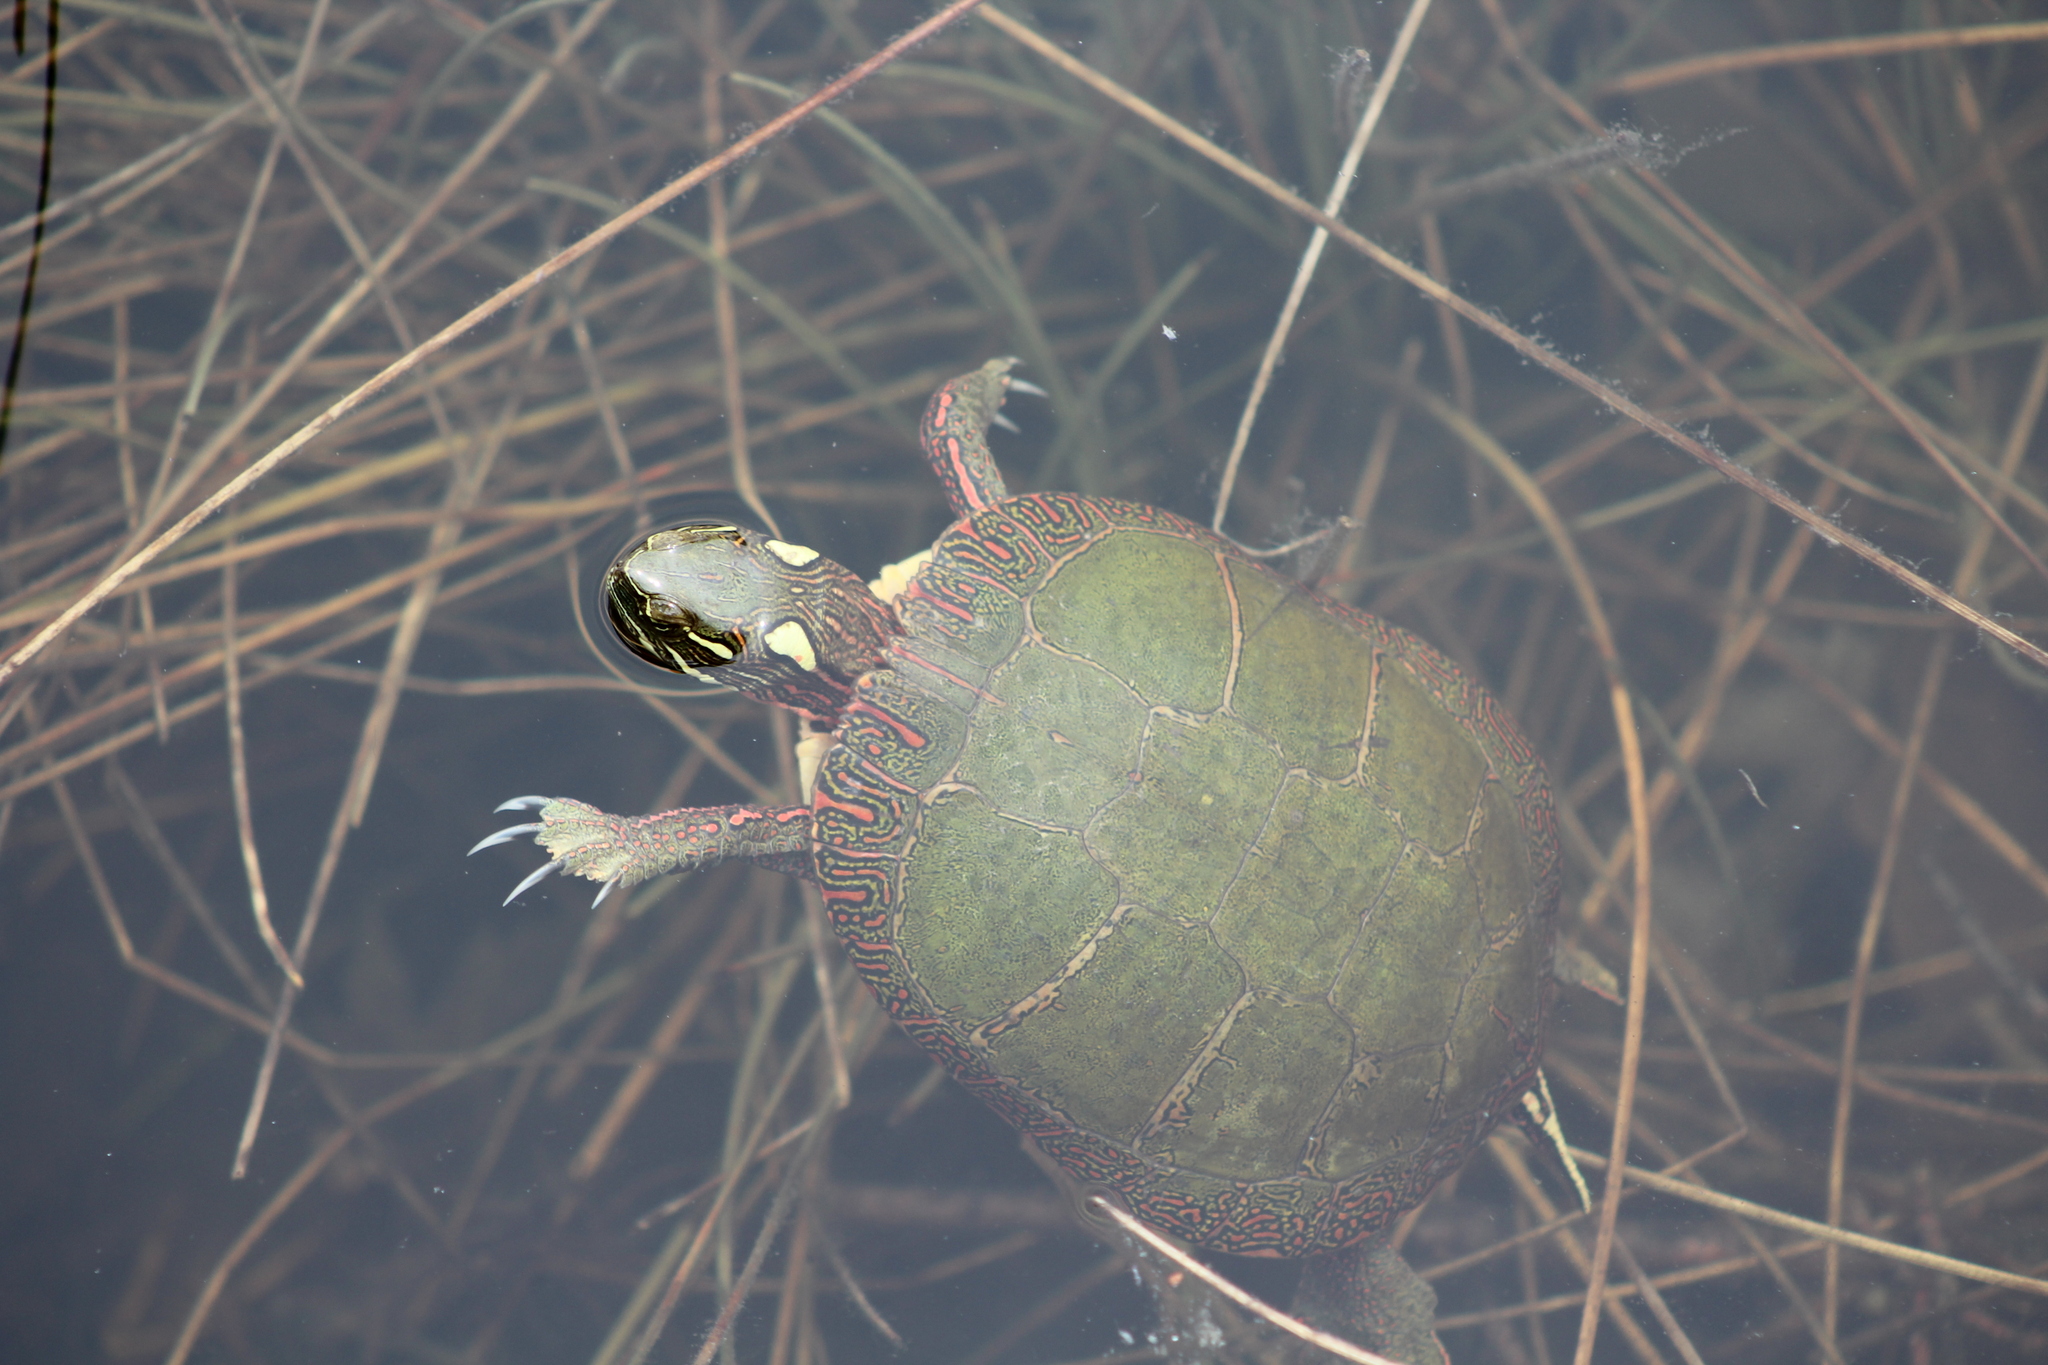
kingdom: Animalia
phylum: Chordata
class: Testudines
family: Emydidae
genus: Chrysemys
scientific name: Chrysemys picta
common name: Painted turtle
